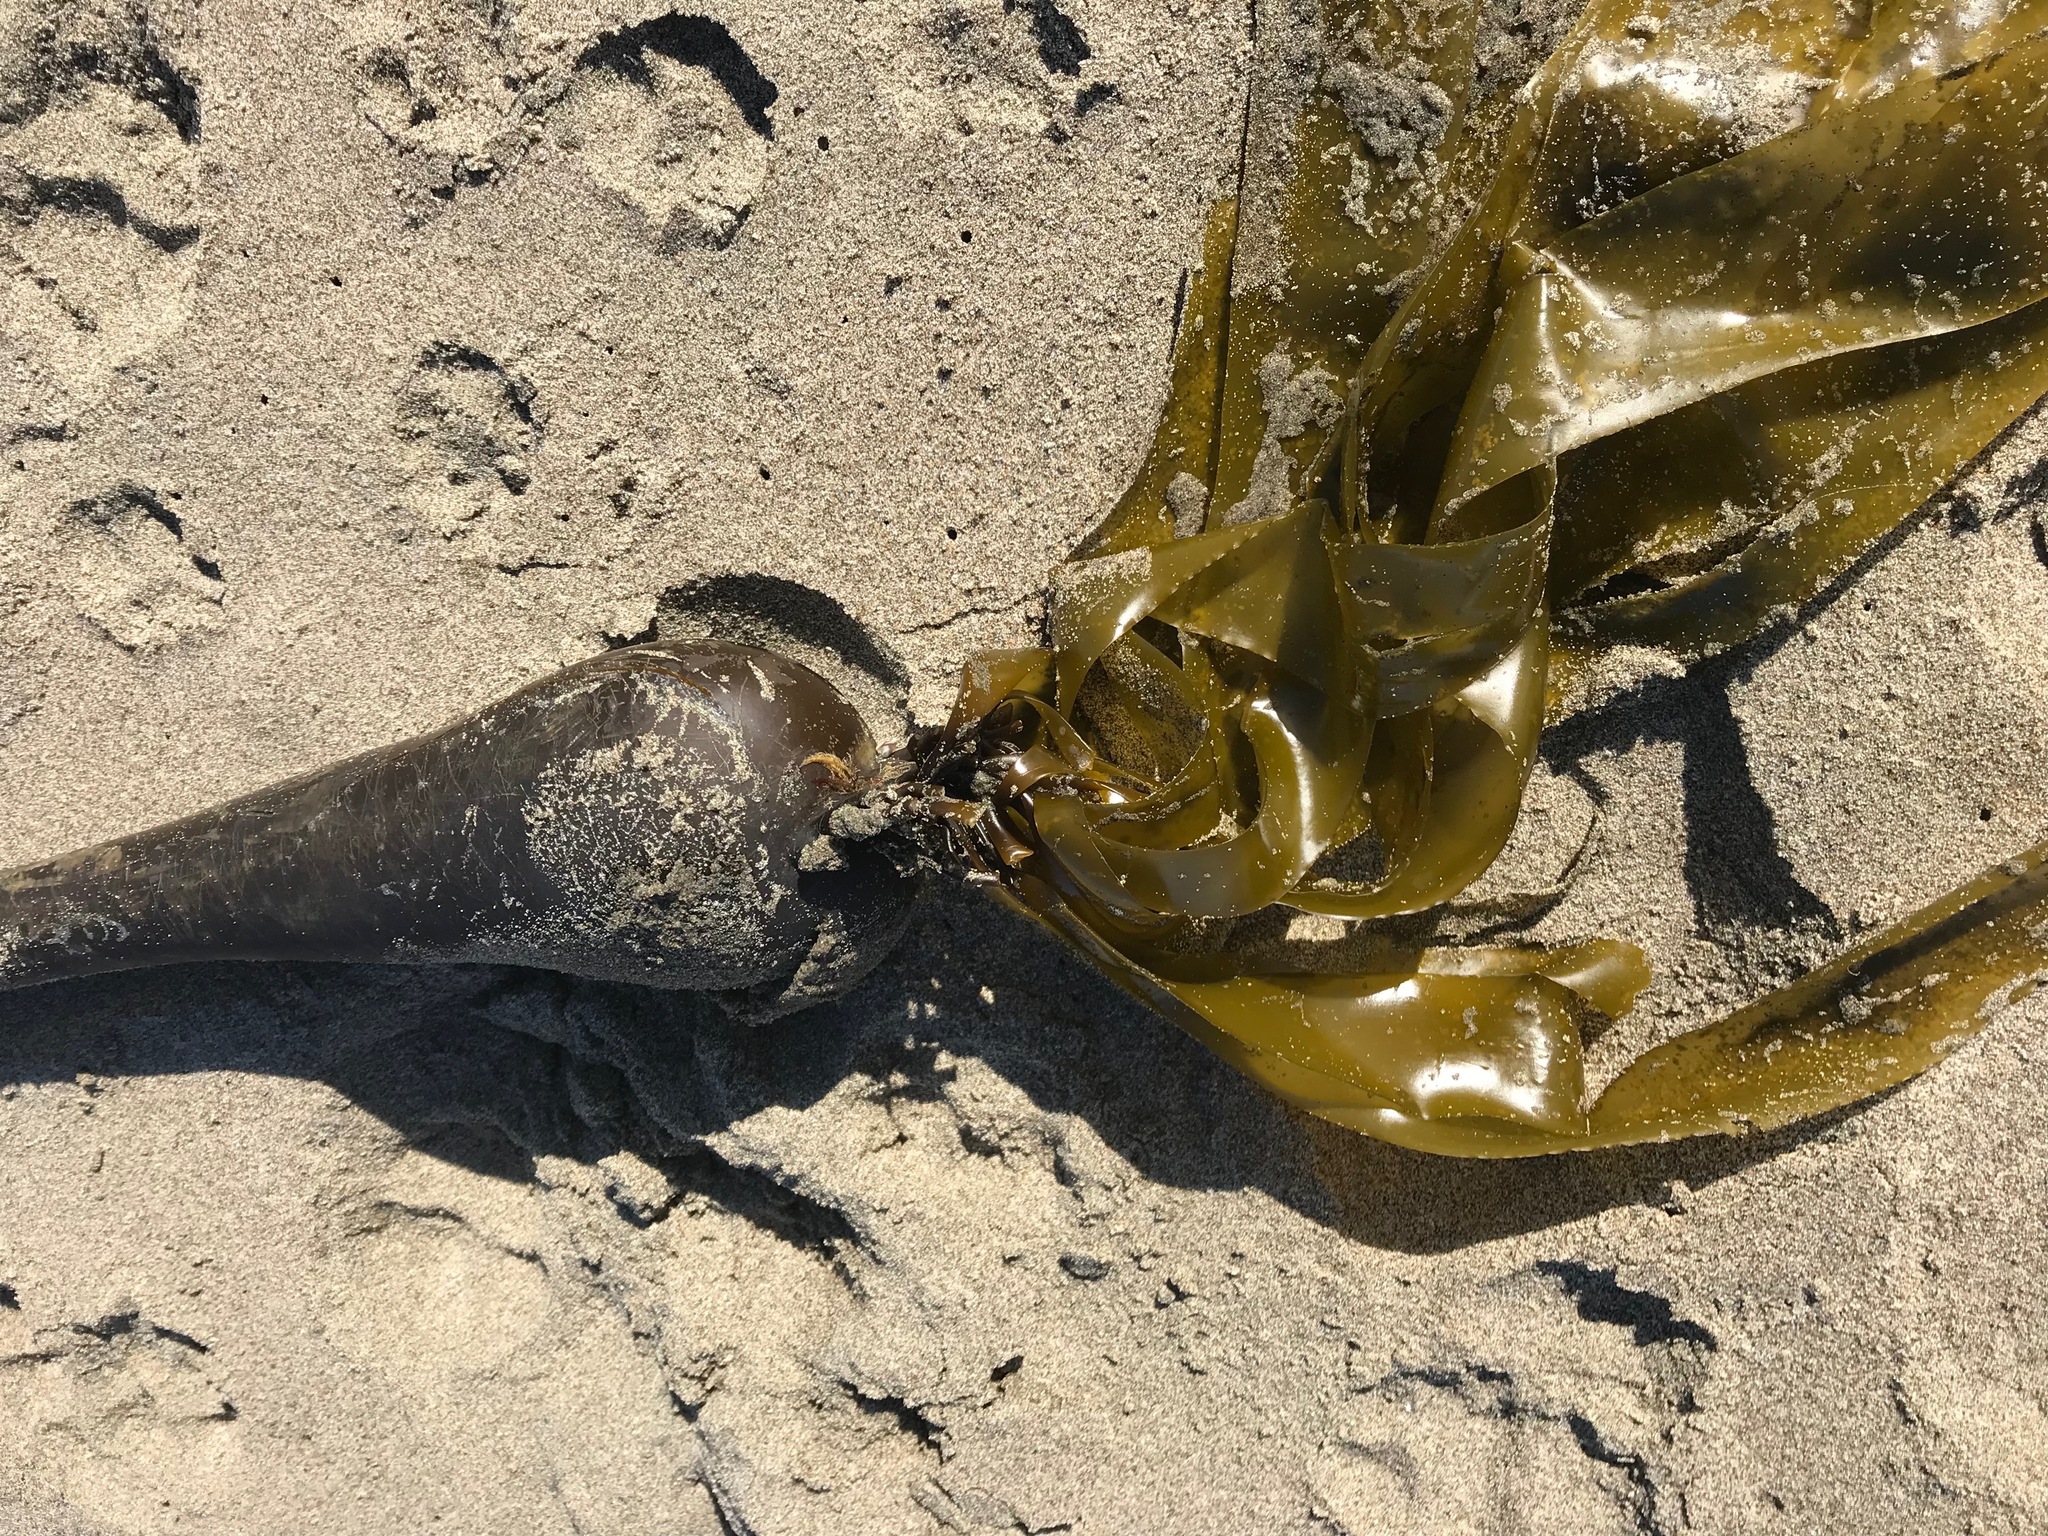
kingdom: Chromista
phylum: Ochrophyta
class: Phaeophyceae
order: Laminariales
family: Laminariaceae
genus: Nereocystis
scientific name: Nereocystis luetkeana
